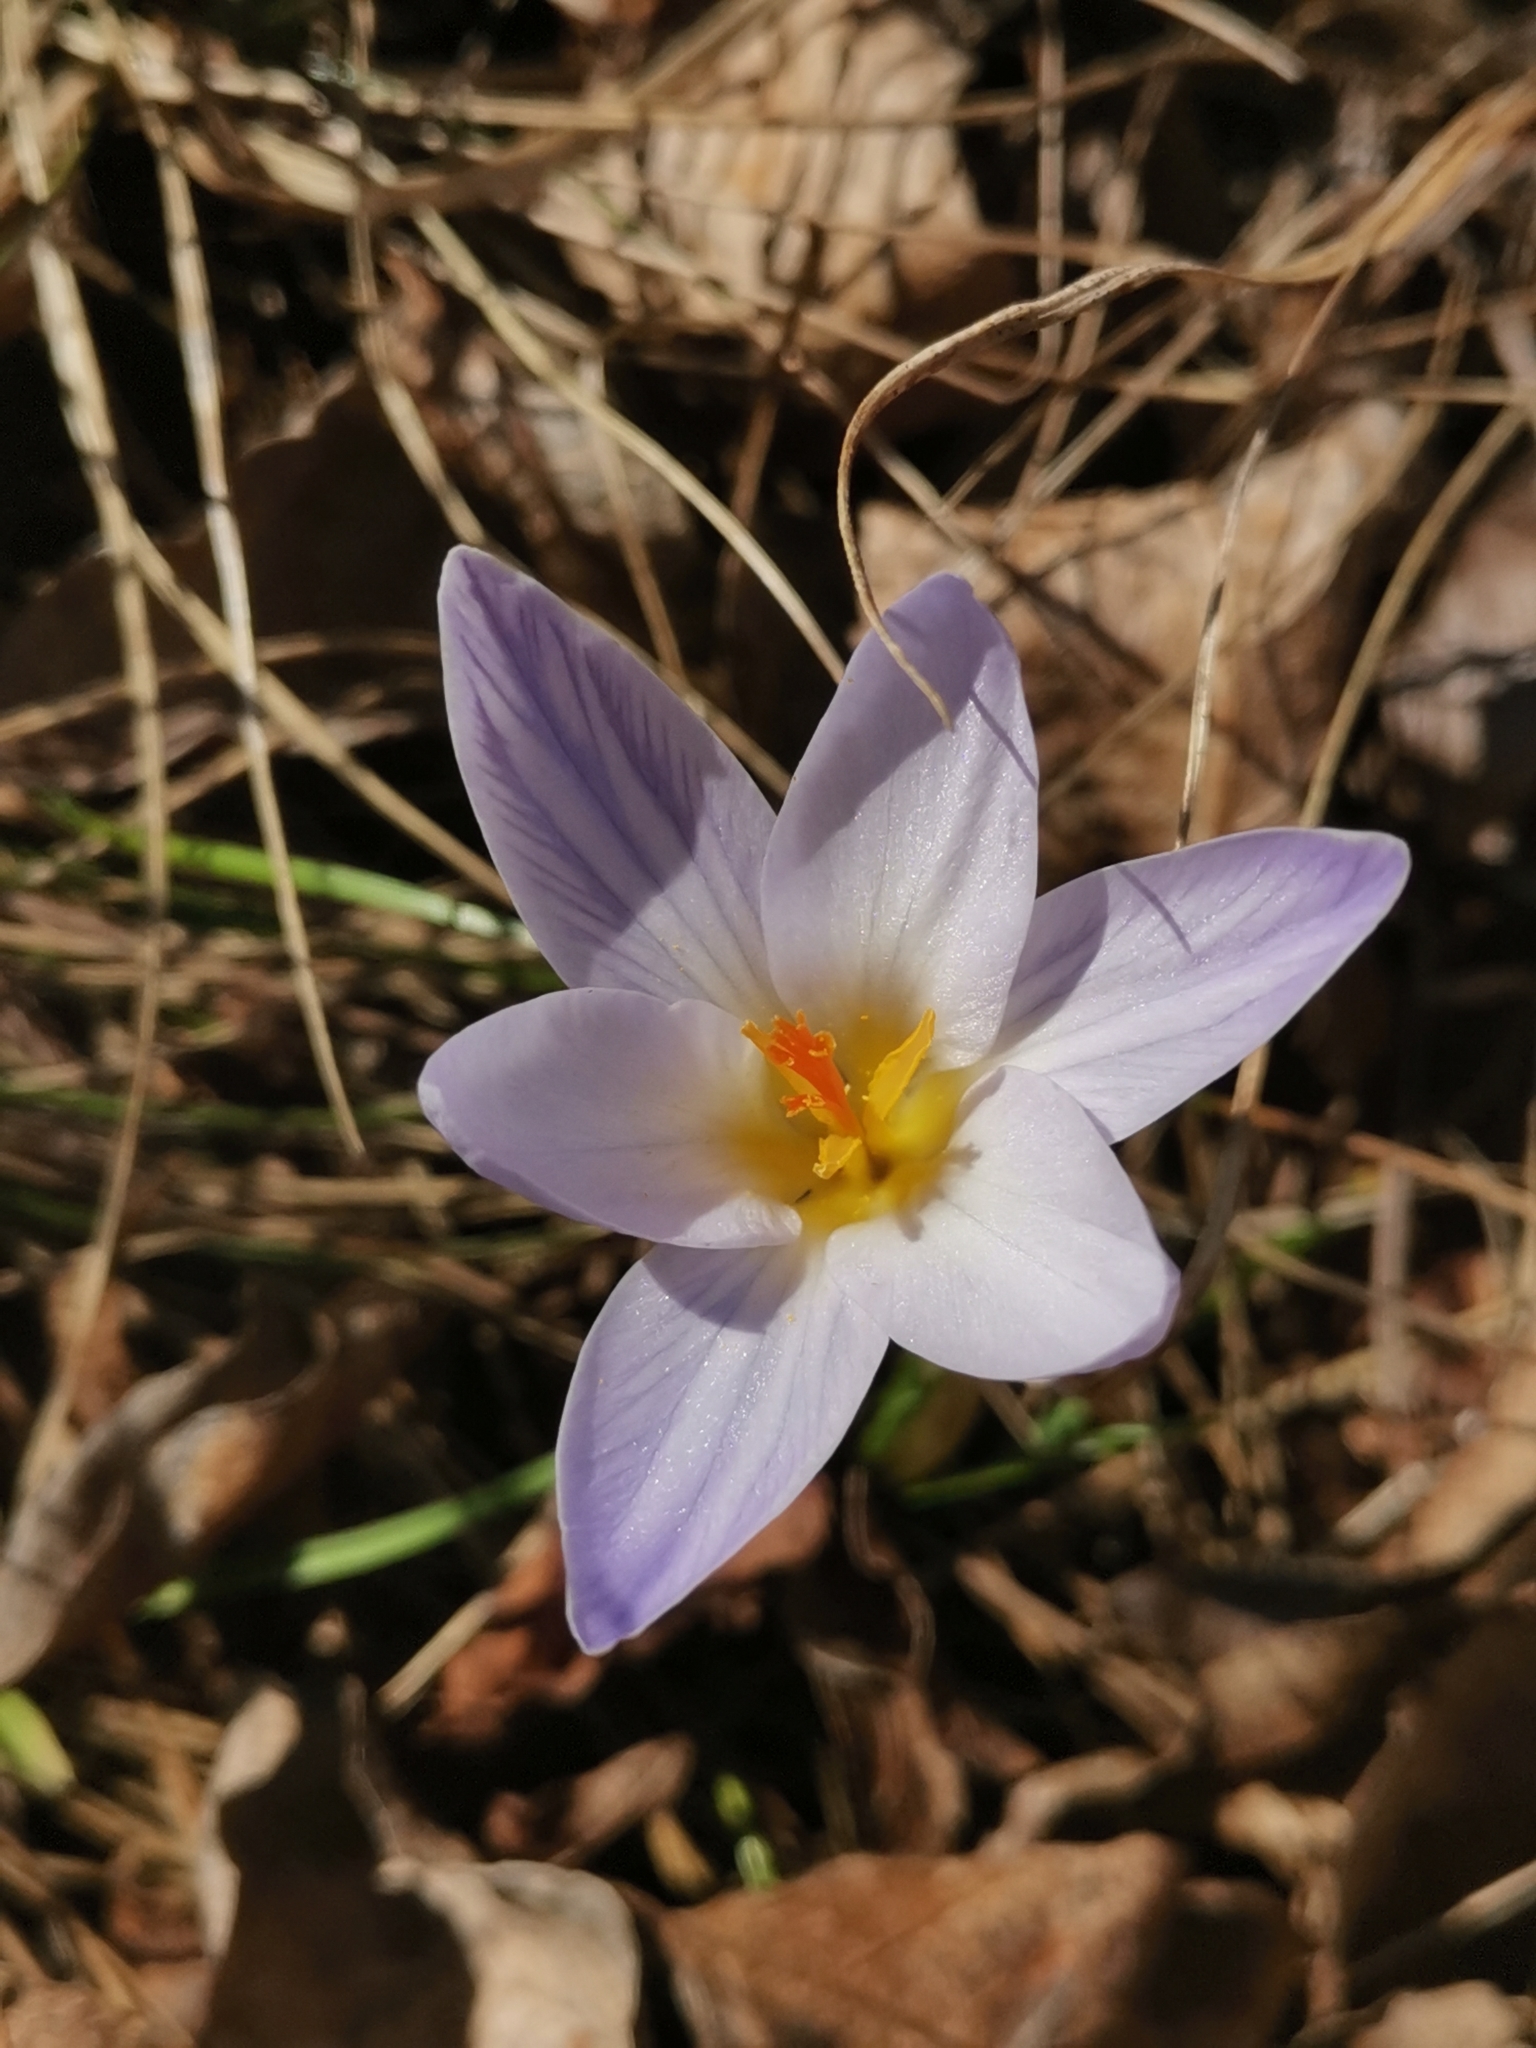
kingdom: Plantae
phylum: Tracheophyta
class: Liliopsida
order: Asparagales
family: Iridaceae
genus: Crocus
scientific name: Crocus variegatus
